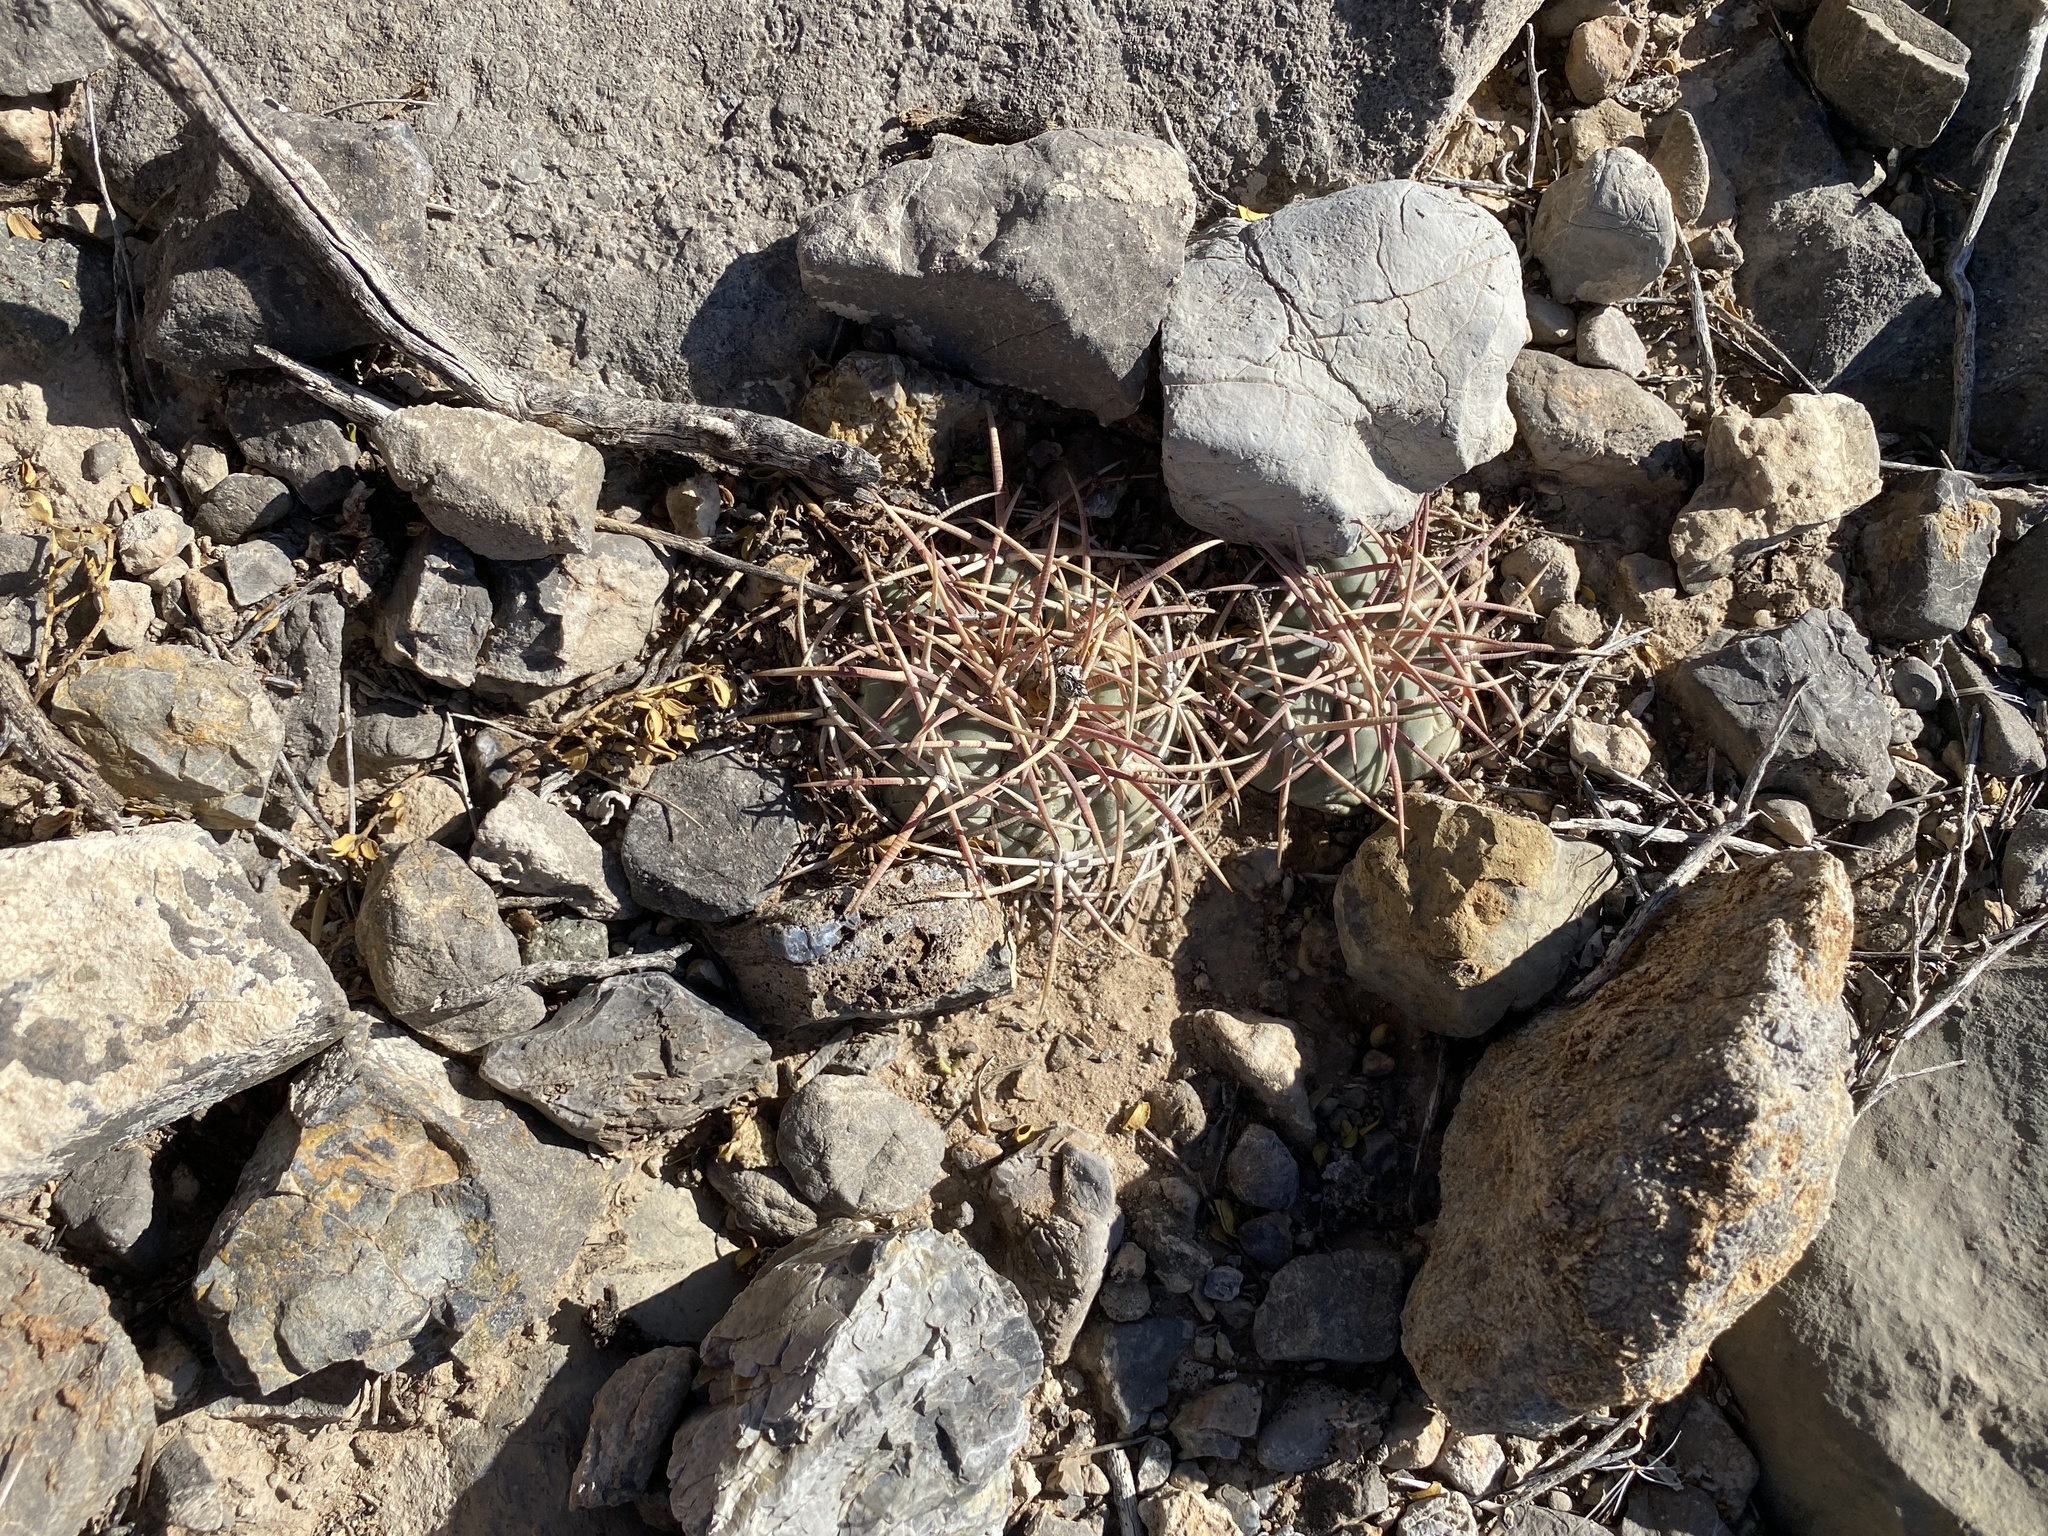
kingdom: Plantae
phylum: Tracheophyta
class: Magnoliopsida
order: Caryophyllales
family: Cactaceae
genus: Echinocactus
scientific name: Echinocactus horizonthalonius
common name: Devilshead
